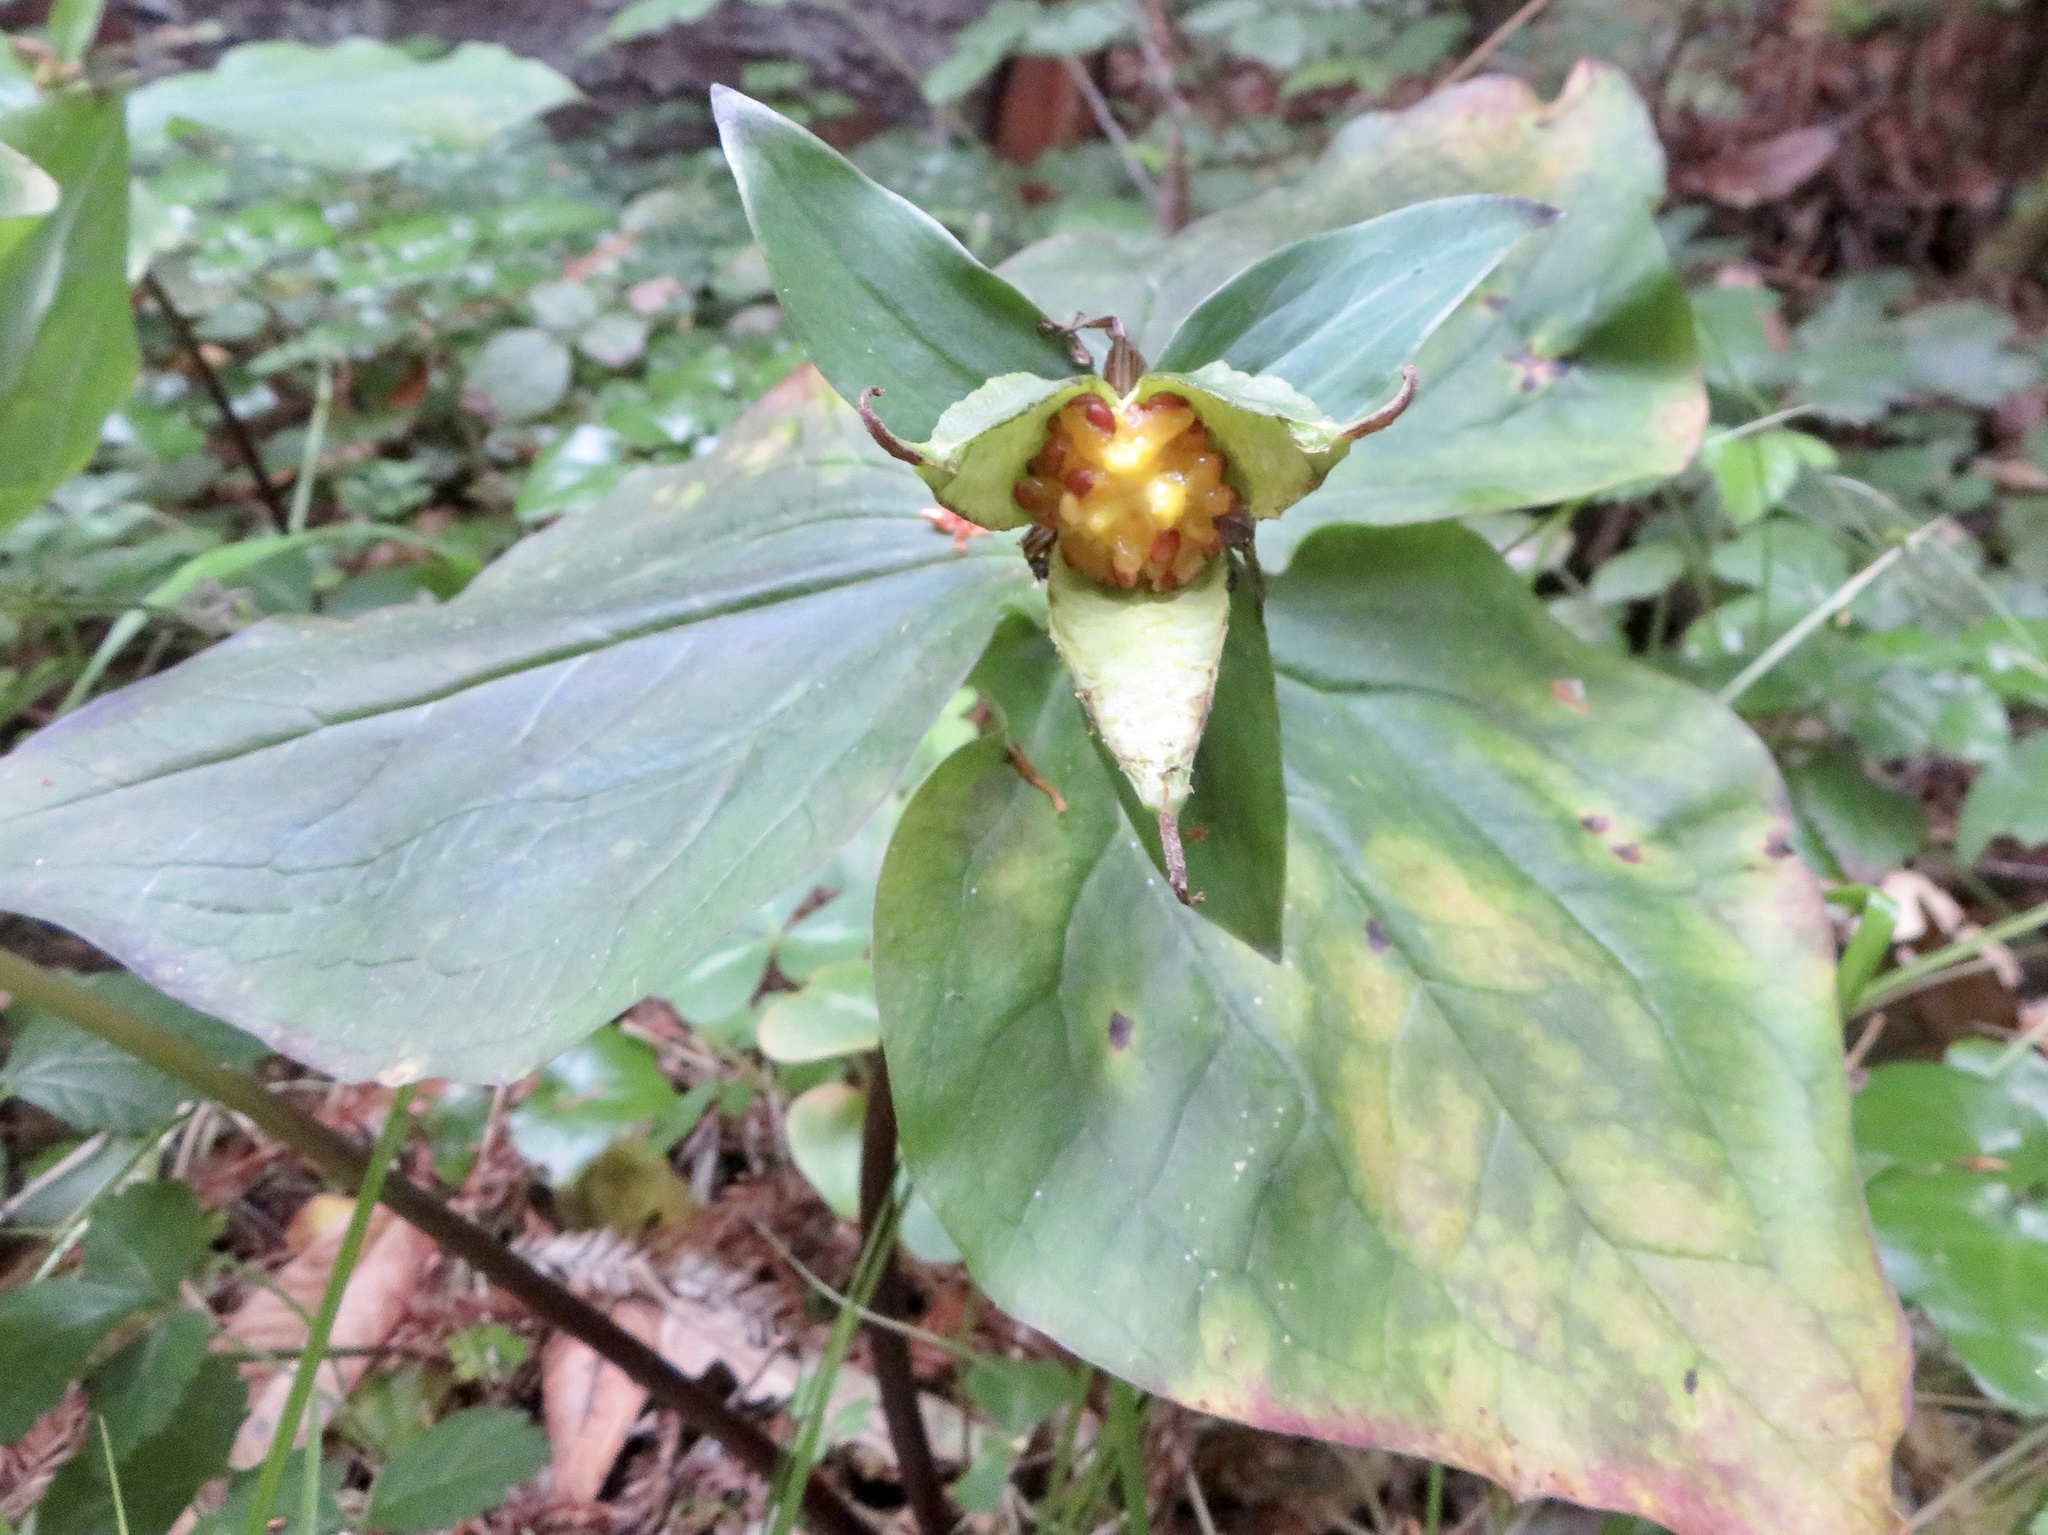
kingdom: Plantae
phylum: Tracheophyta
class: Liliopsida
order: Liliales
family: Melanthiaceae
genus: Trillium
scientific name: Trillium ovatum
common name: Pacific trillium
